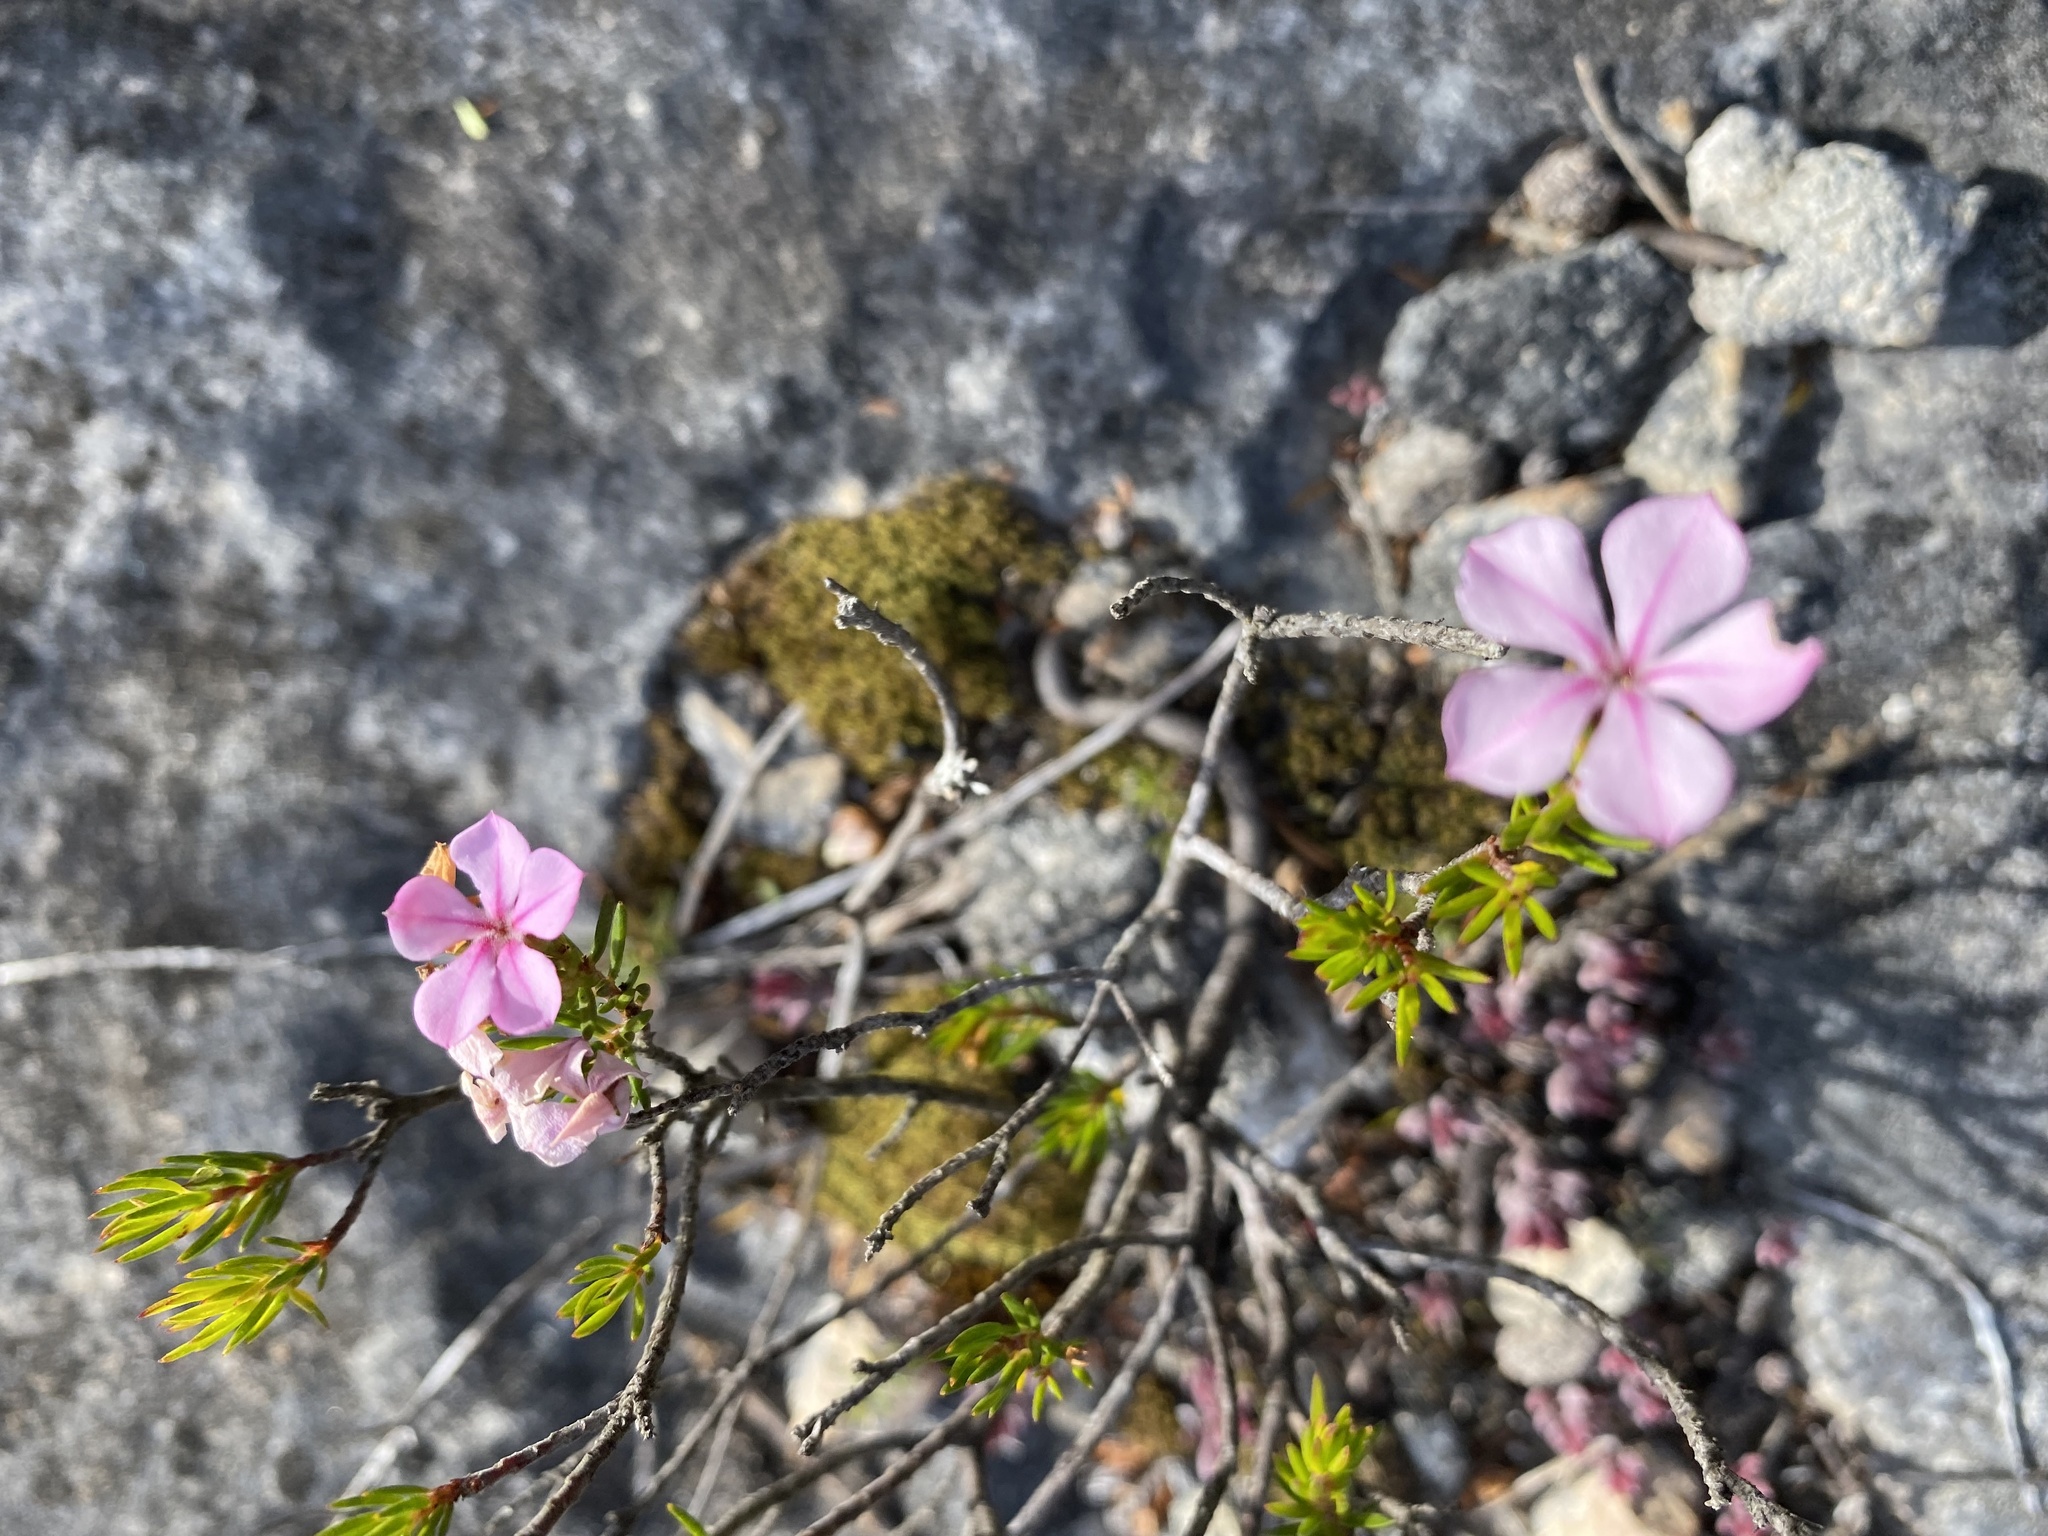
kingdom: Plantae
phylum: Tracheophyta
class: Magnoliopsida
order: Sapindales
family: Rutaceae
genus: Acmadenia
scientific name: Acmadenia obtusata
